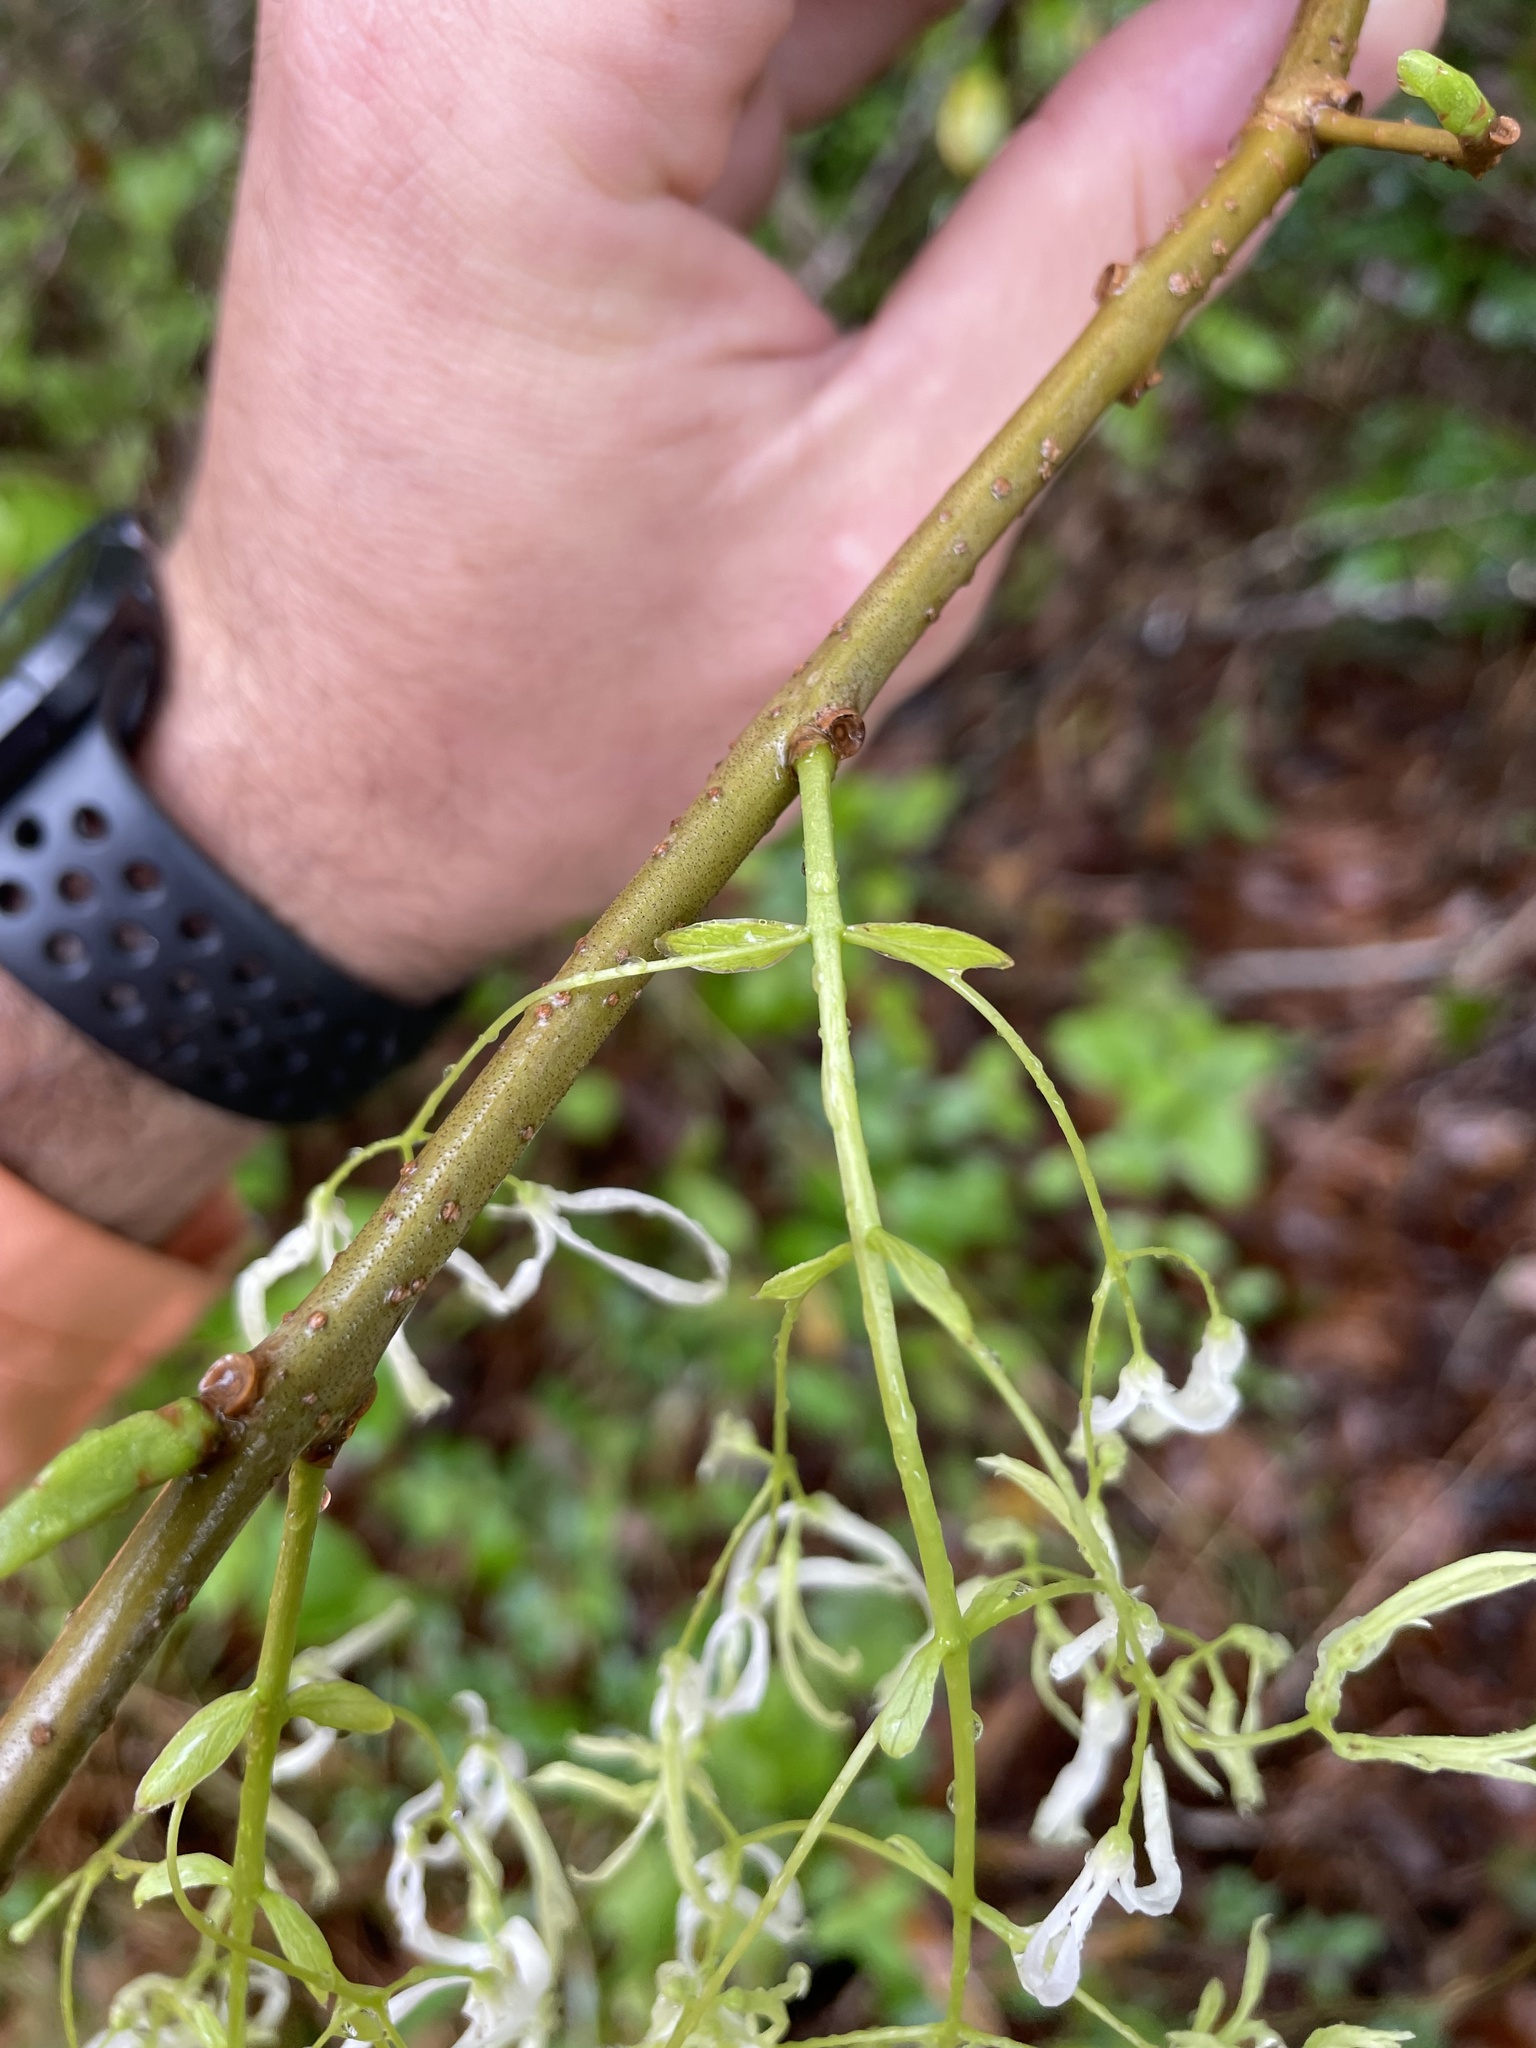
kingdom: Plantae
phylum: Tracheophyta
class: Magnoliopsida
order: Lamiales
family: Oleaceae
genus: Chionanthus
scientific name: Chionanthus virginicus
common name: American fringetree
